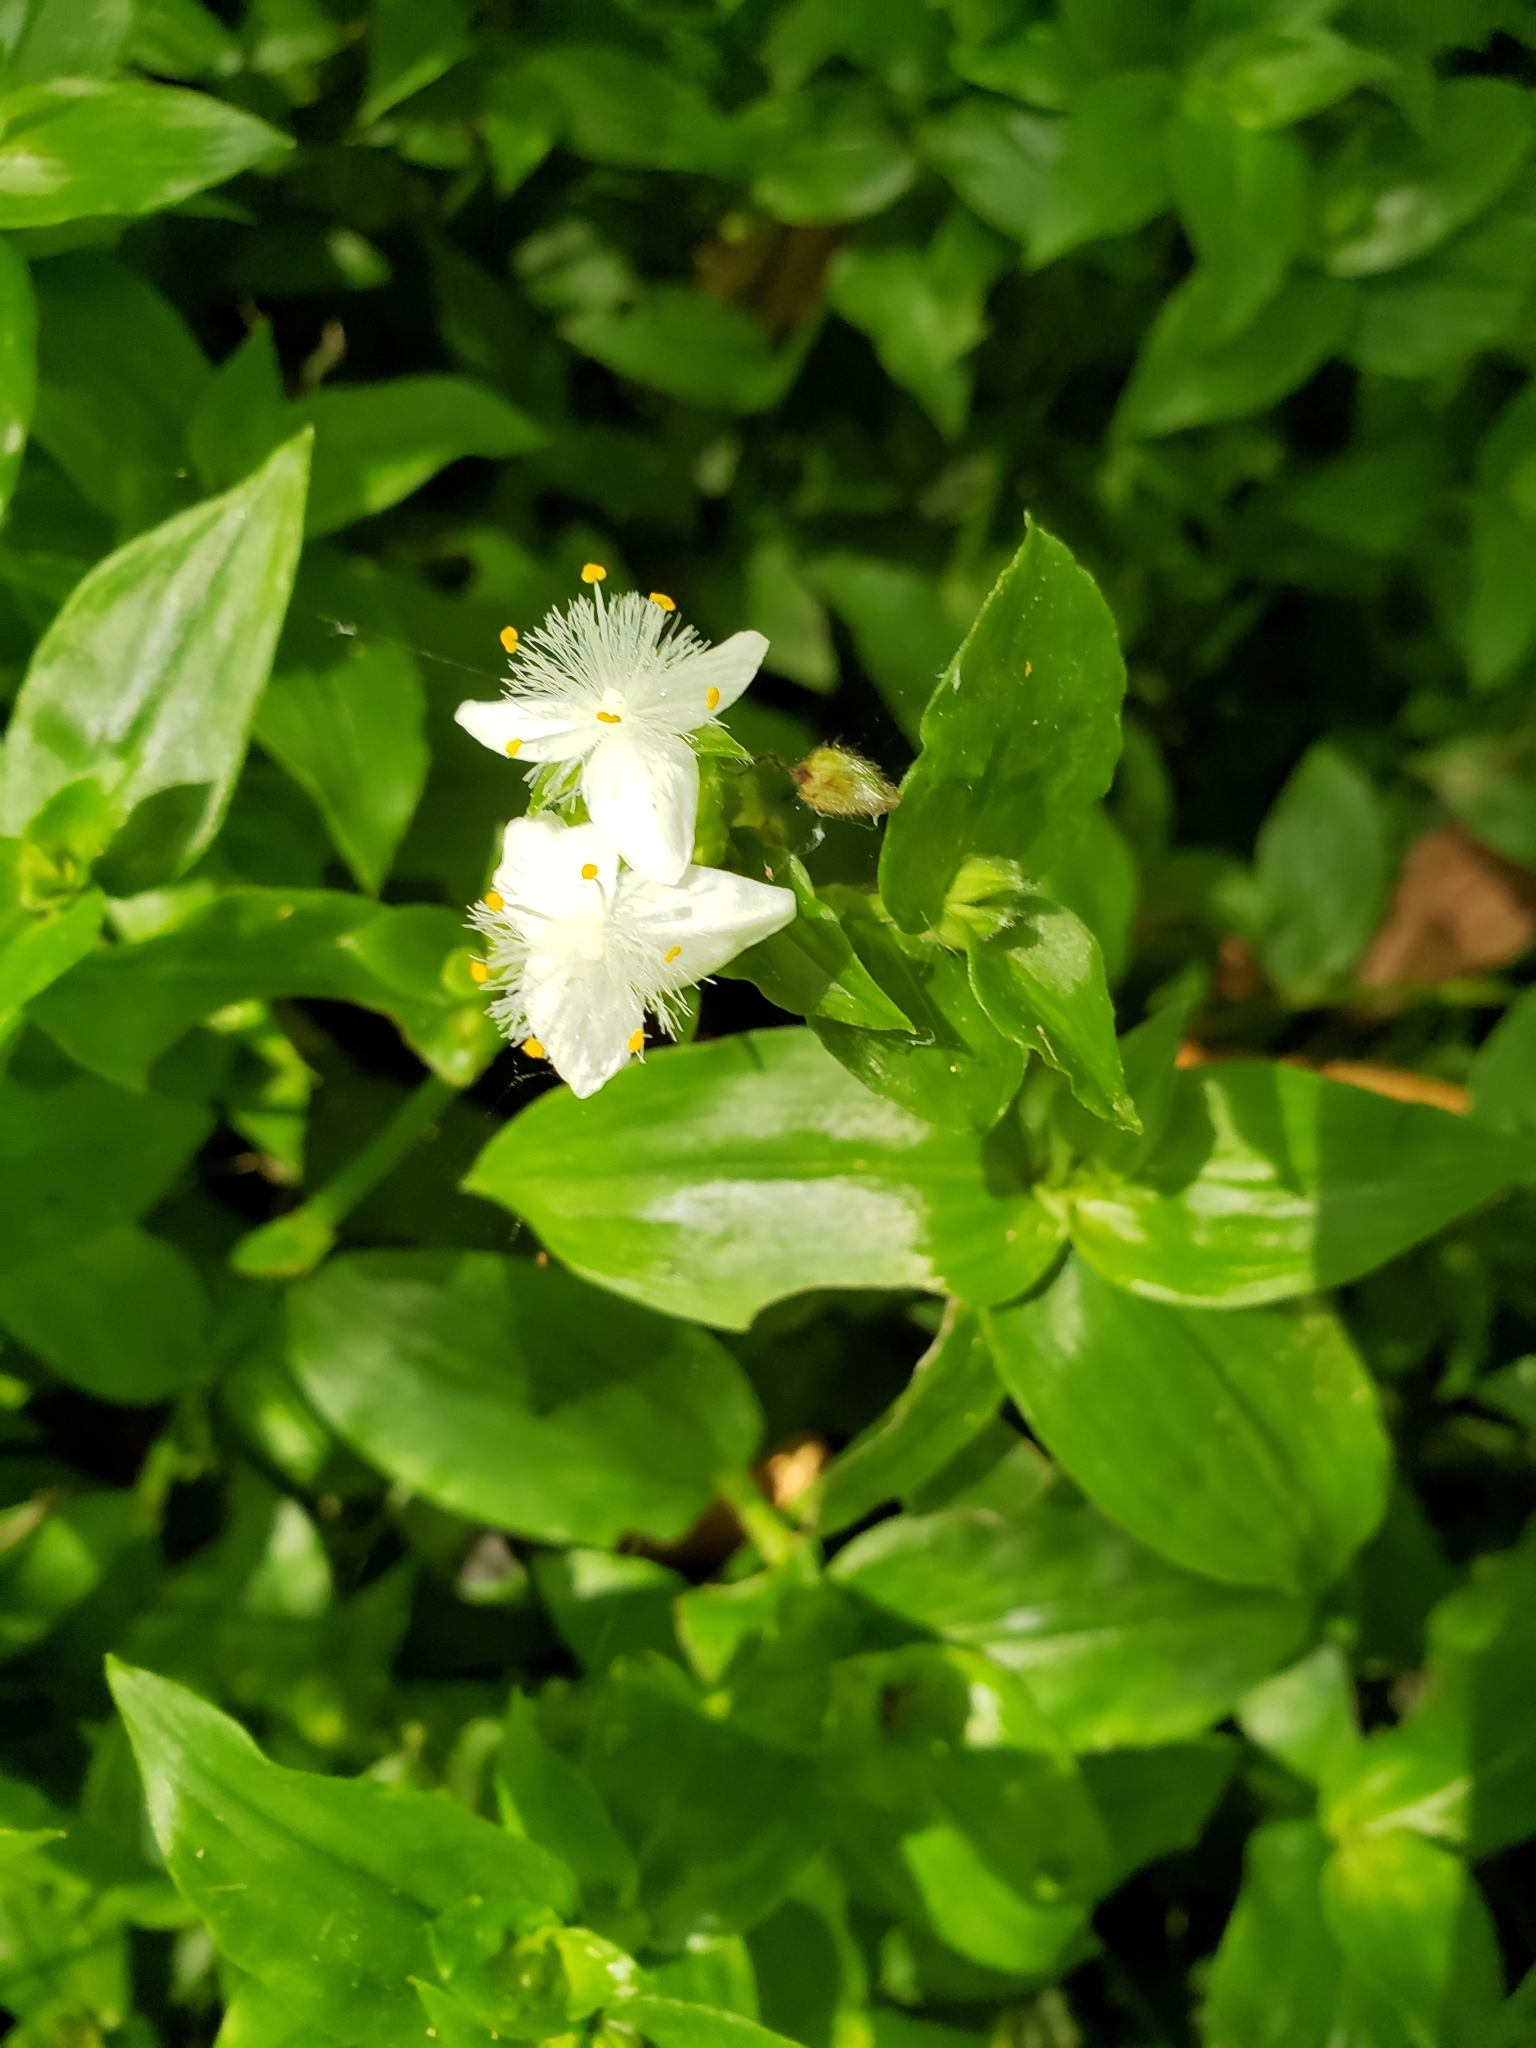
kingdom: Plantae
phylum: Tracheophyta
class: Liliopsida
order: Commelinales
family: Commelinaceae
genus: Tradescantia
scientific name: Tradescantia fluminensis
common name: Wandering-jew
